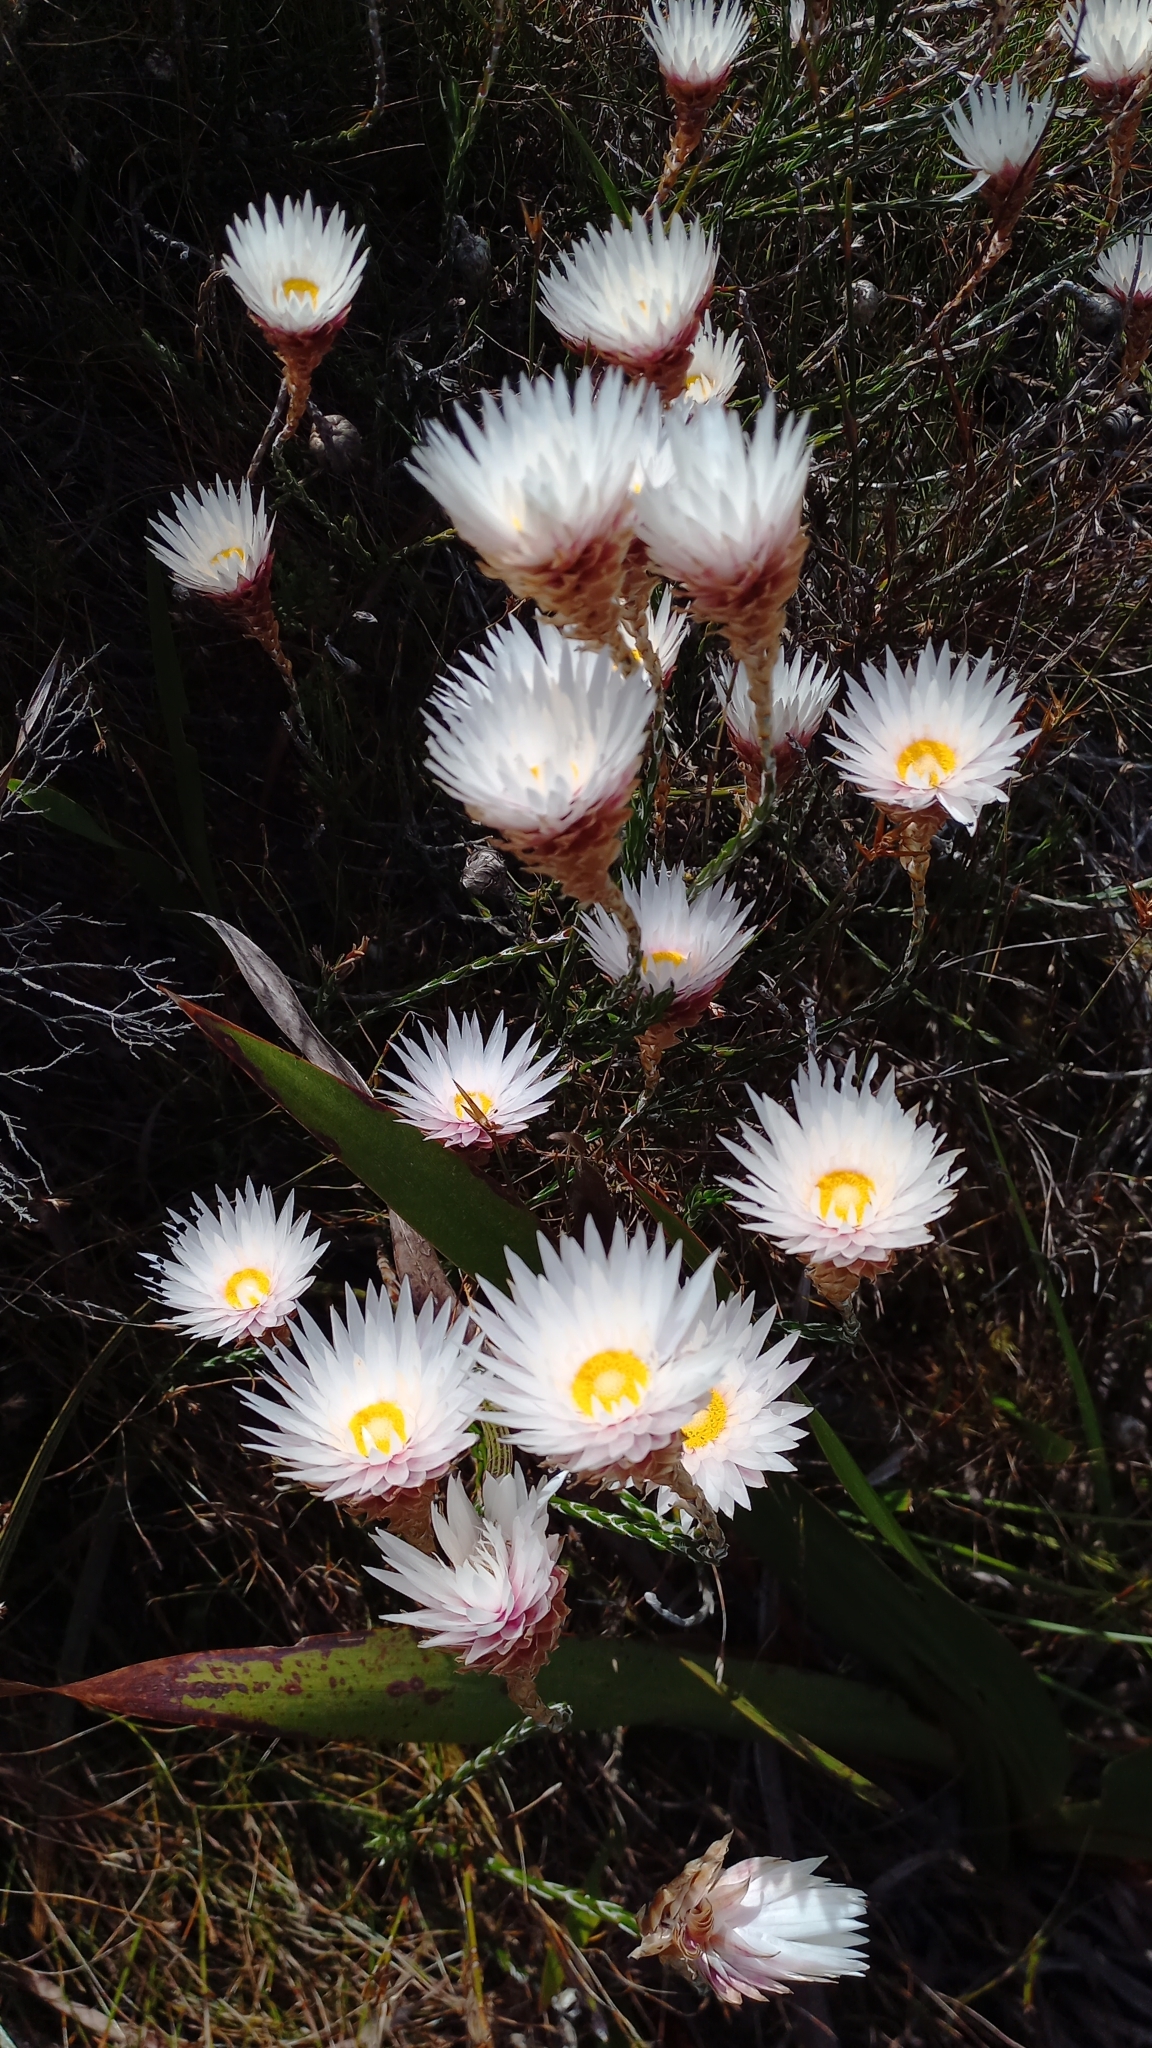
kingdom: Plantae
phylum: Tracheophyta
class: Magnoliopsida
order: Asterales
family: Asteraceae
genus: Edmondia
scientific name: Edmondia pinifolia
